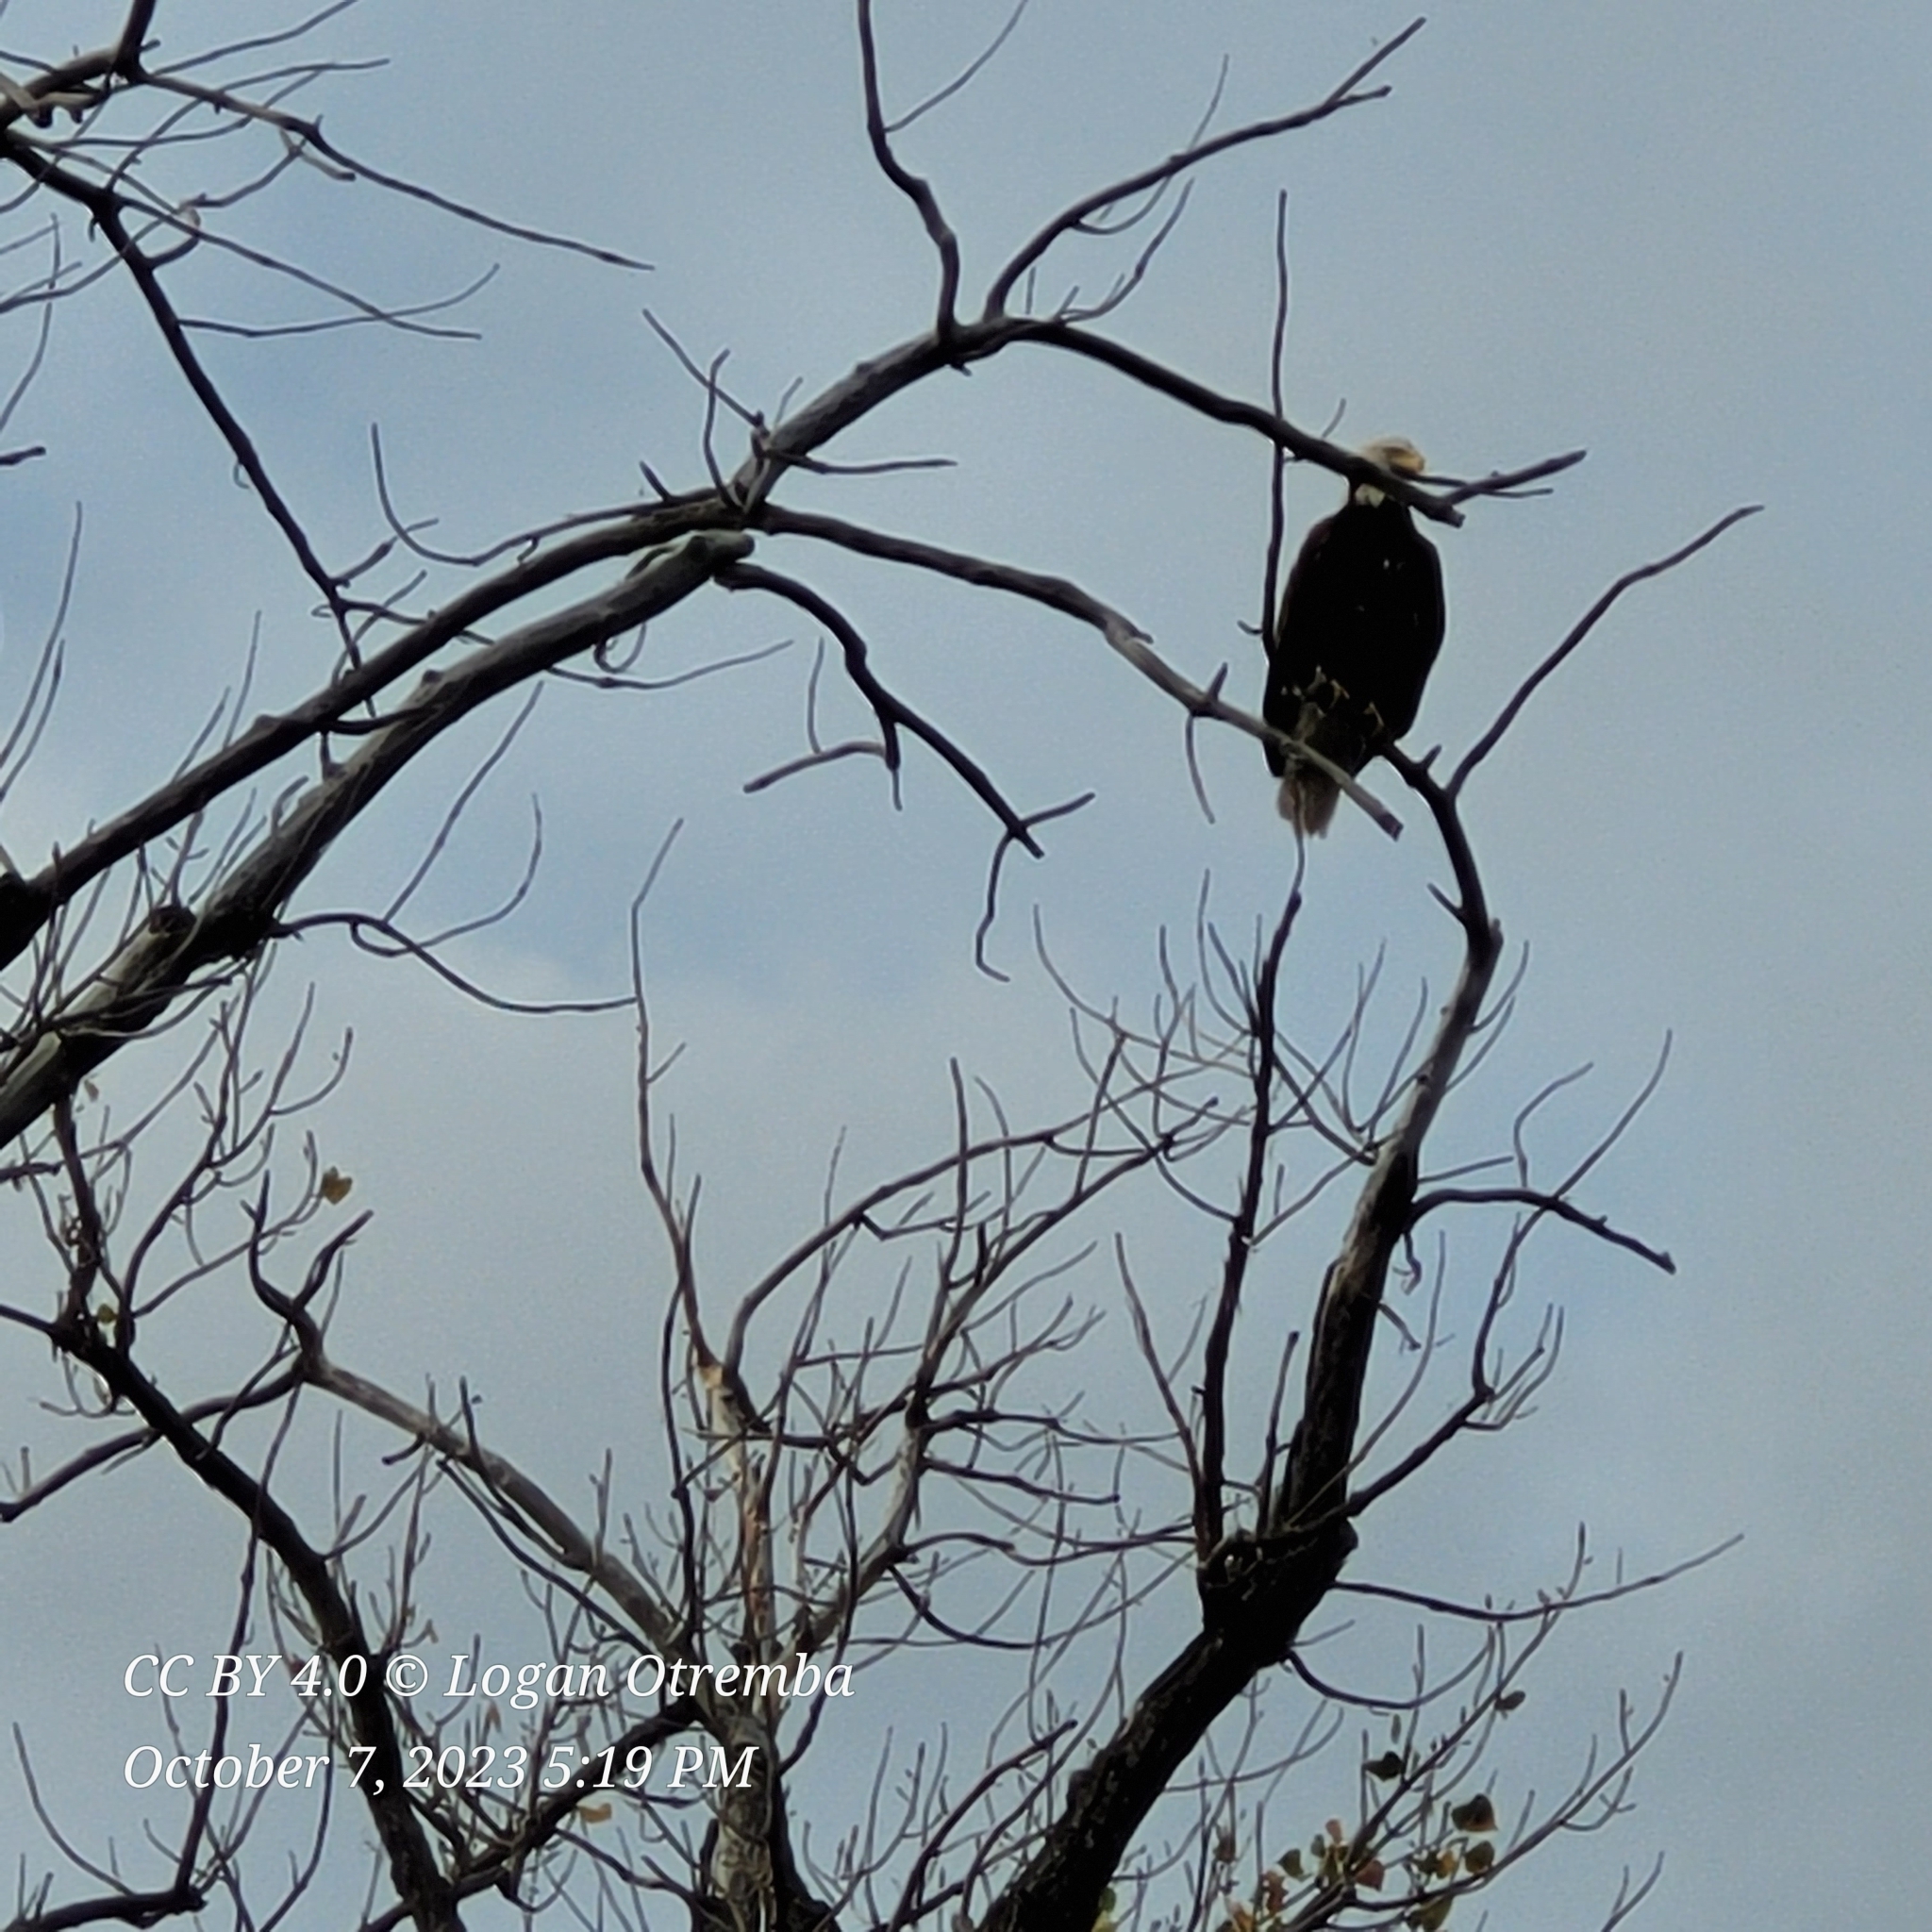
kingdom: Animalia
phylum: Chordata
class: Aves
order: Accipitriformes
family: Accipitridae
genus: Haliaeetus
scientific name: Haliaeetus leucocephalus
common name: Bald eagle
